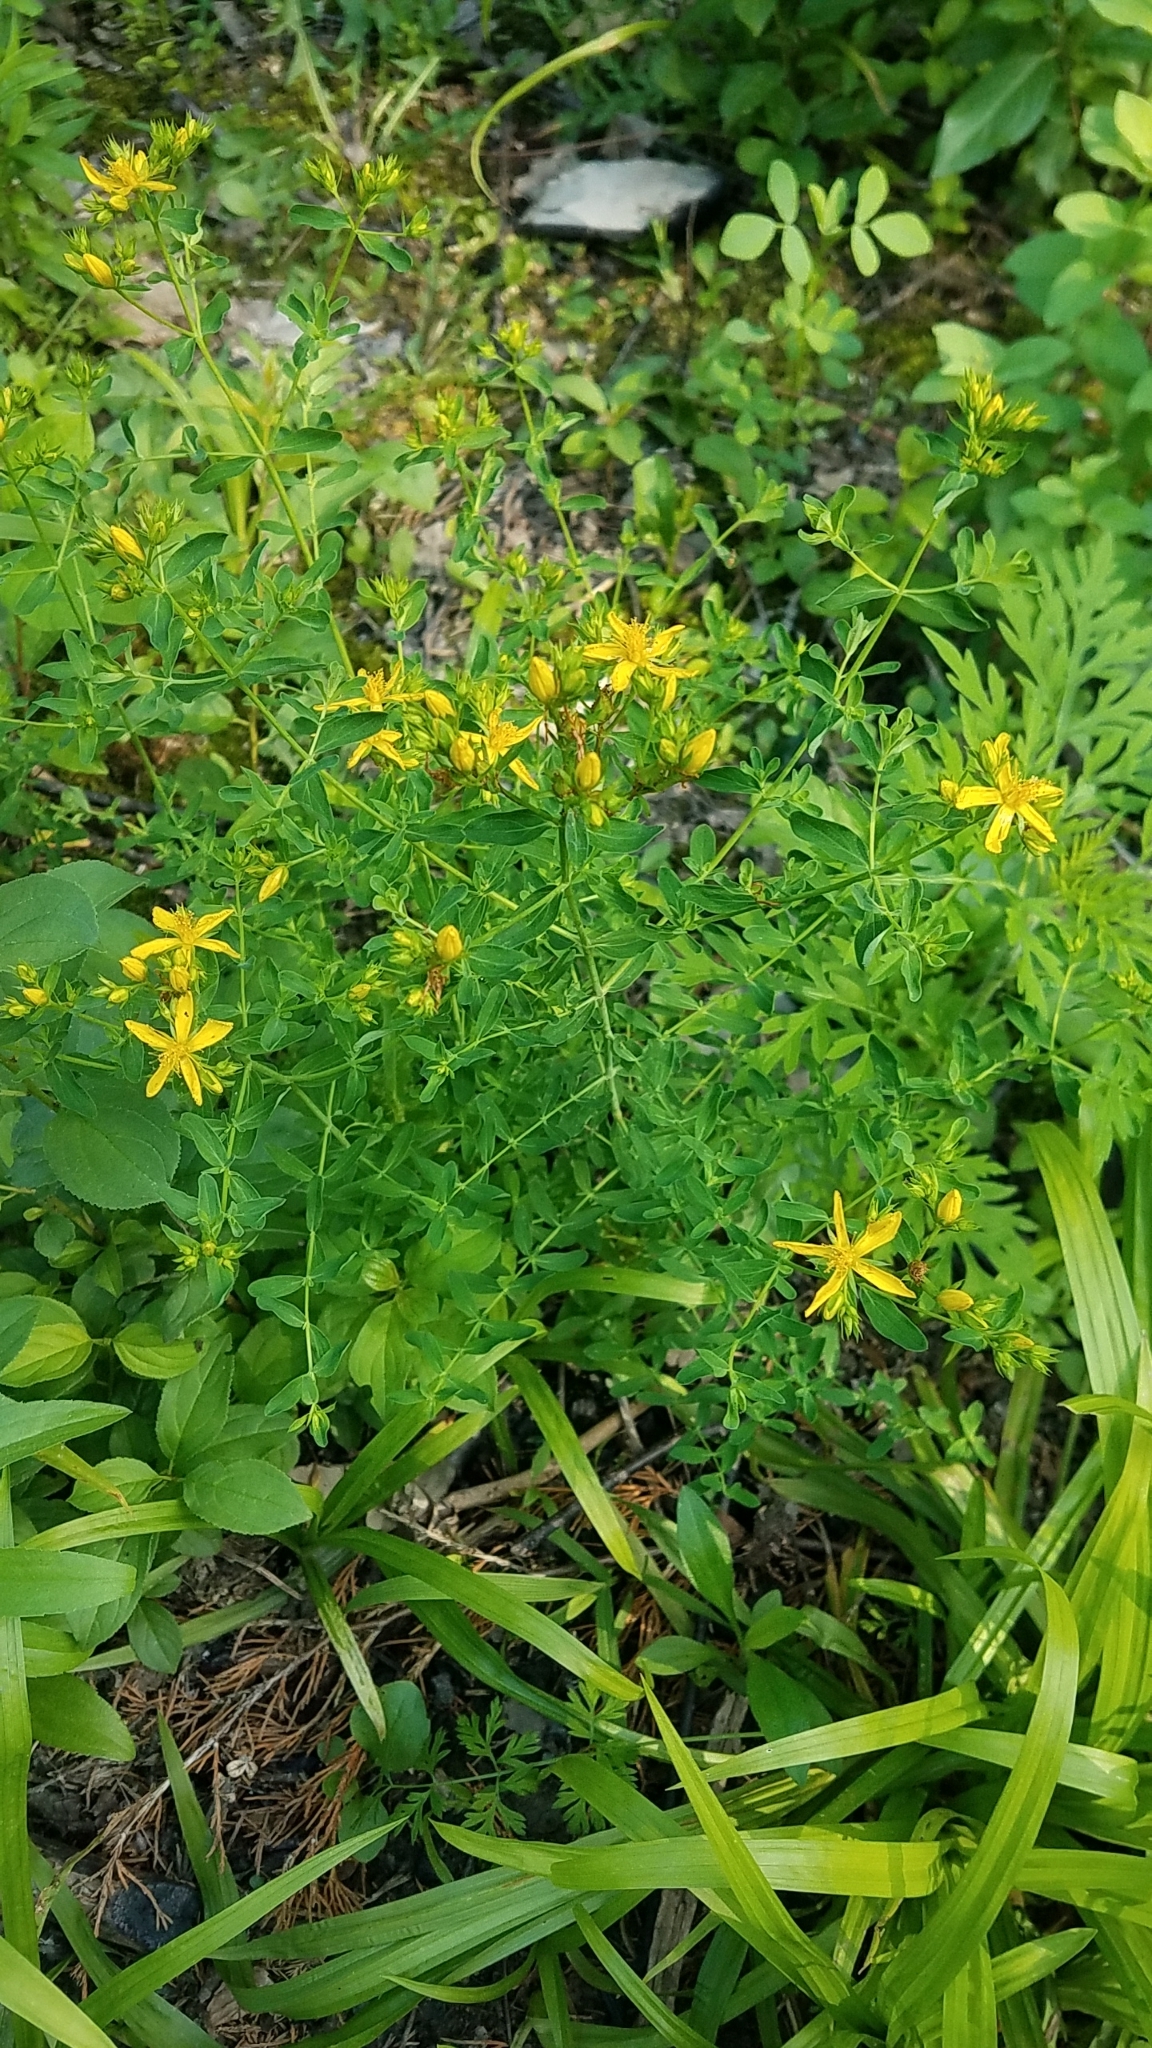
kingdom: Plantae
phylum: Tracheophyta
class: Magnoliopsida
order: Malpighiales
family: Hypericaceae
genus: Hypericum
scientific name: Hypericum perforatum
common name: Common st. johnswort
